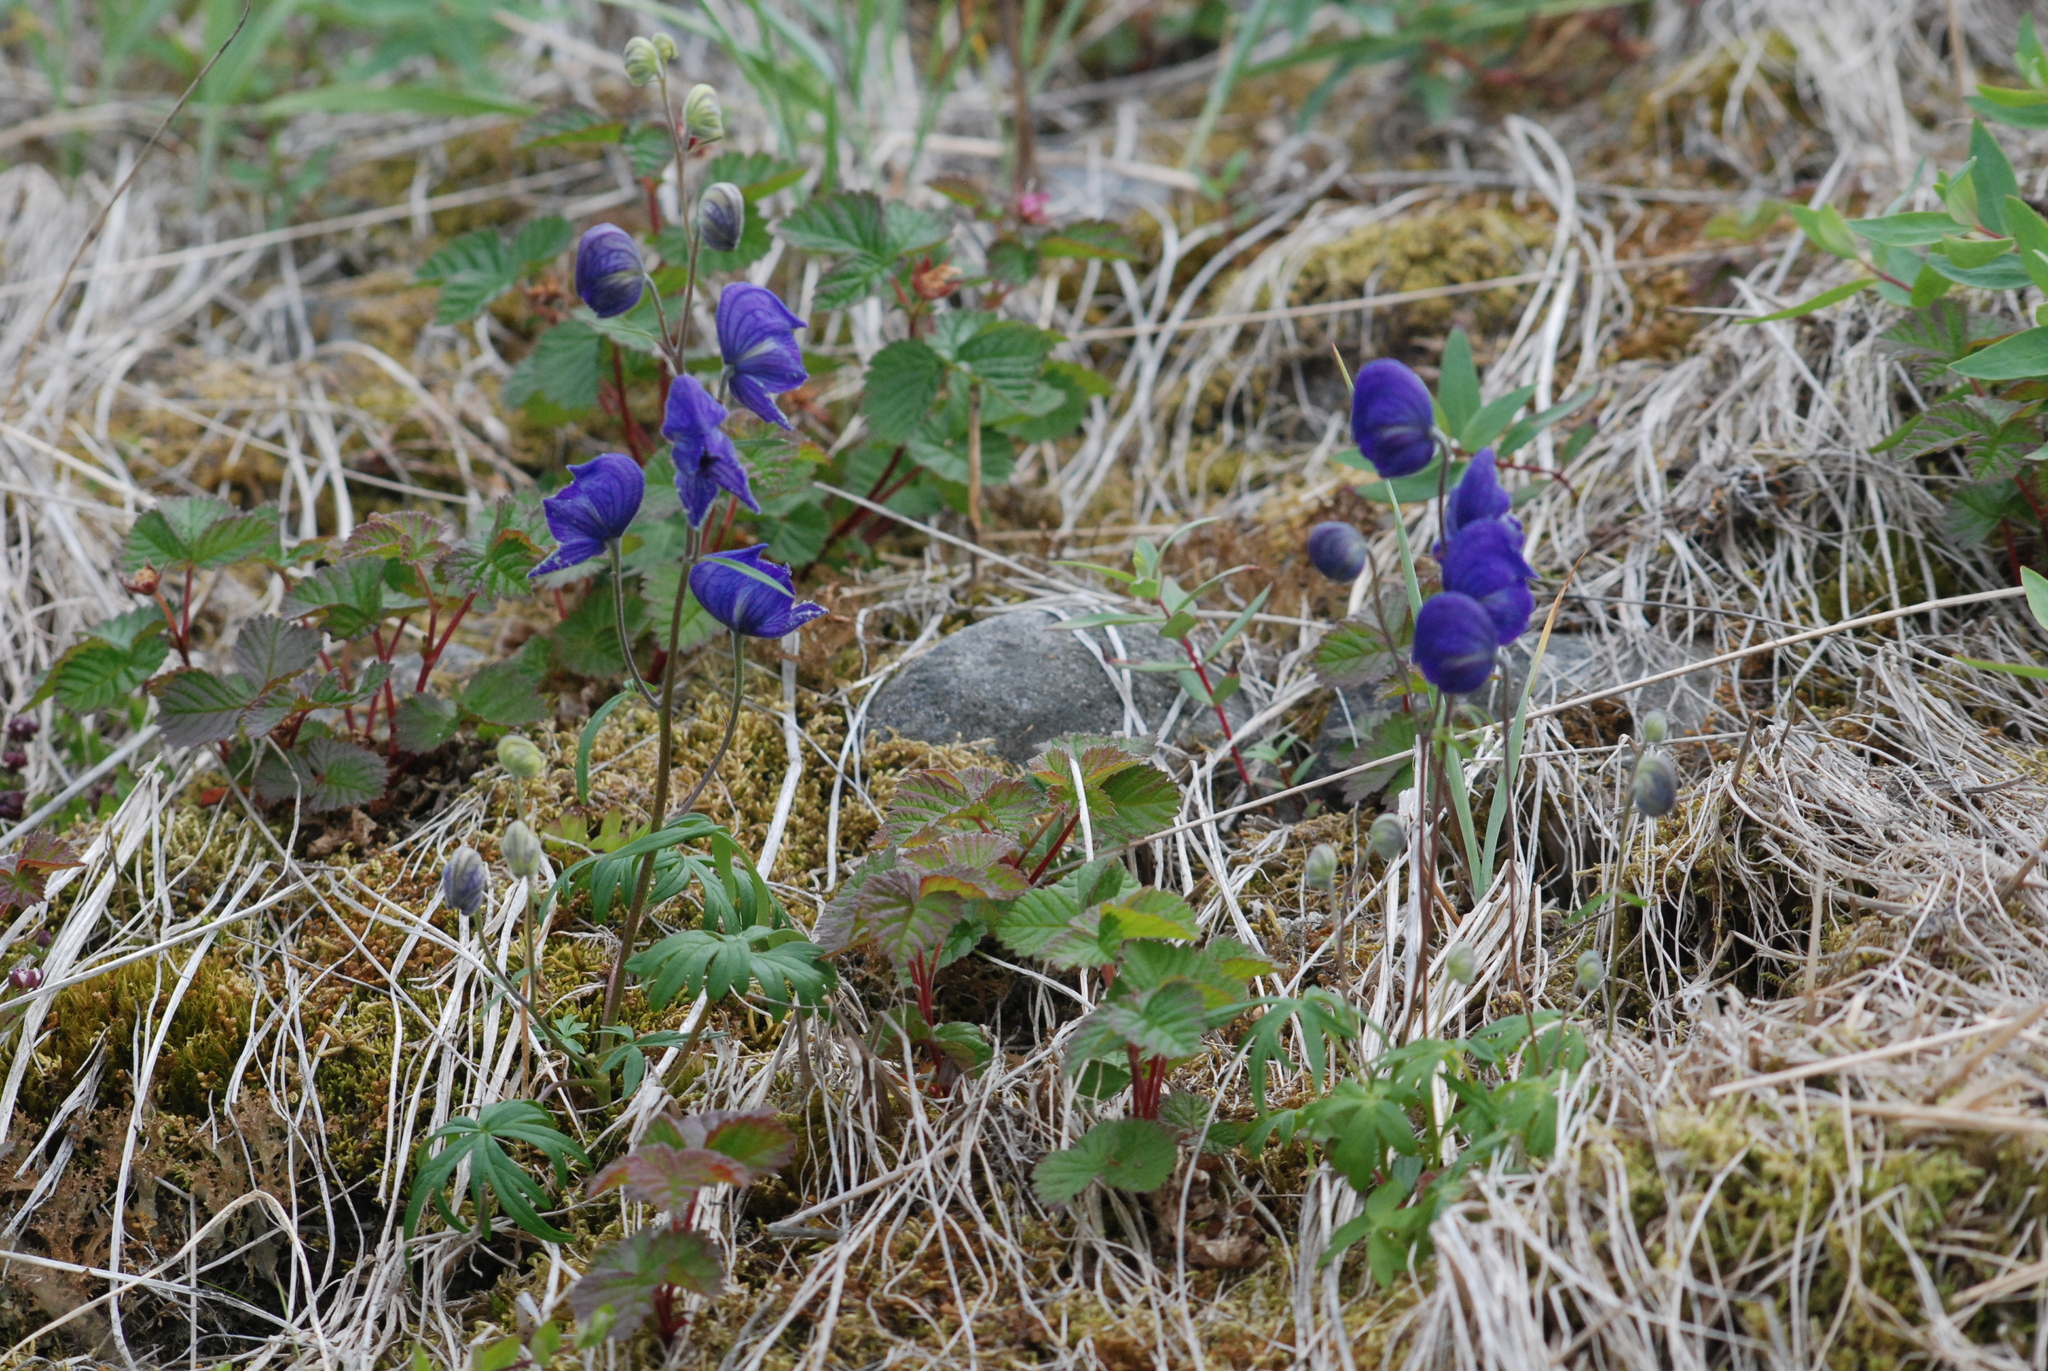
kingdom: Plantae
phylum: Tracheophyta
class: Magnoliopsida
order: Ranunculales
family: Ranunculaceae
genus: Aconitum
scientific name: Aconitum delphiniifolium
